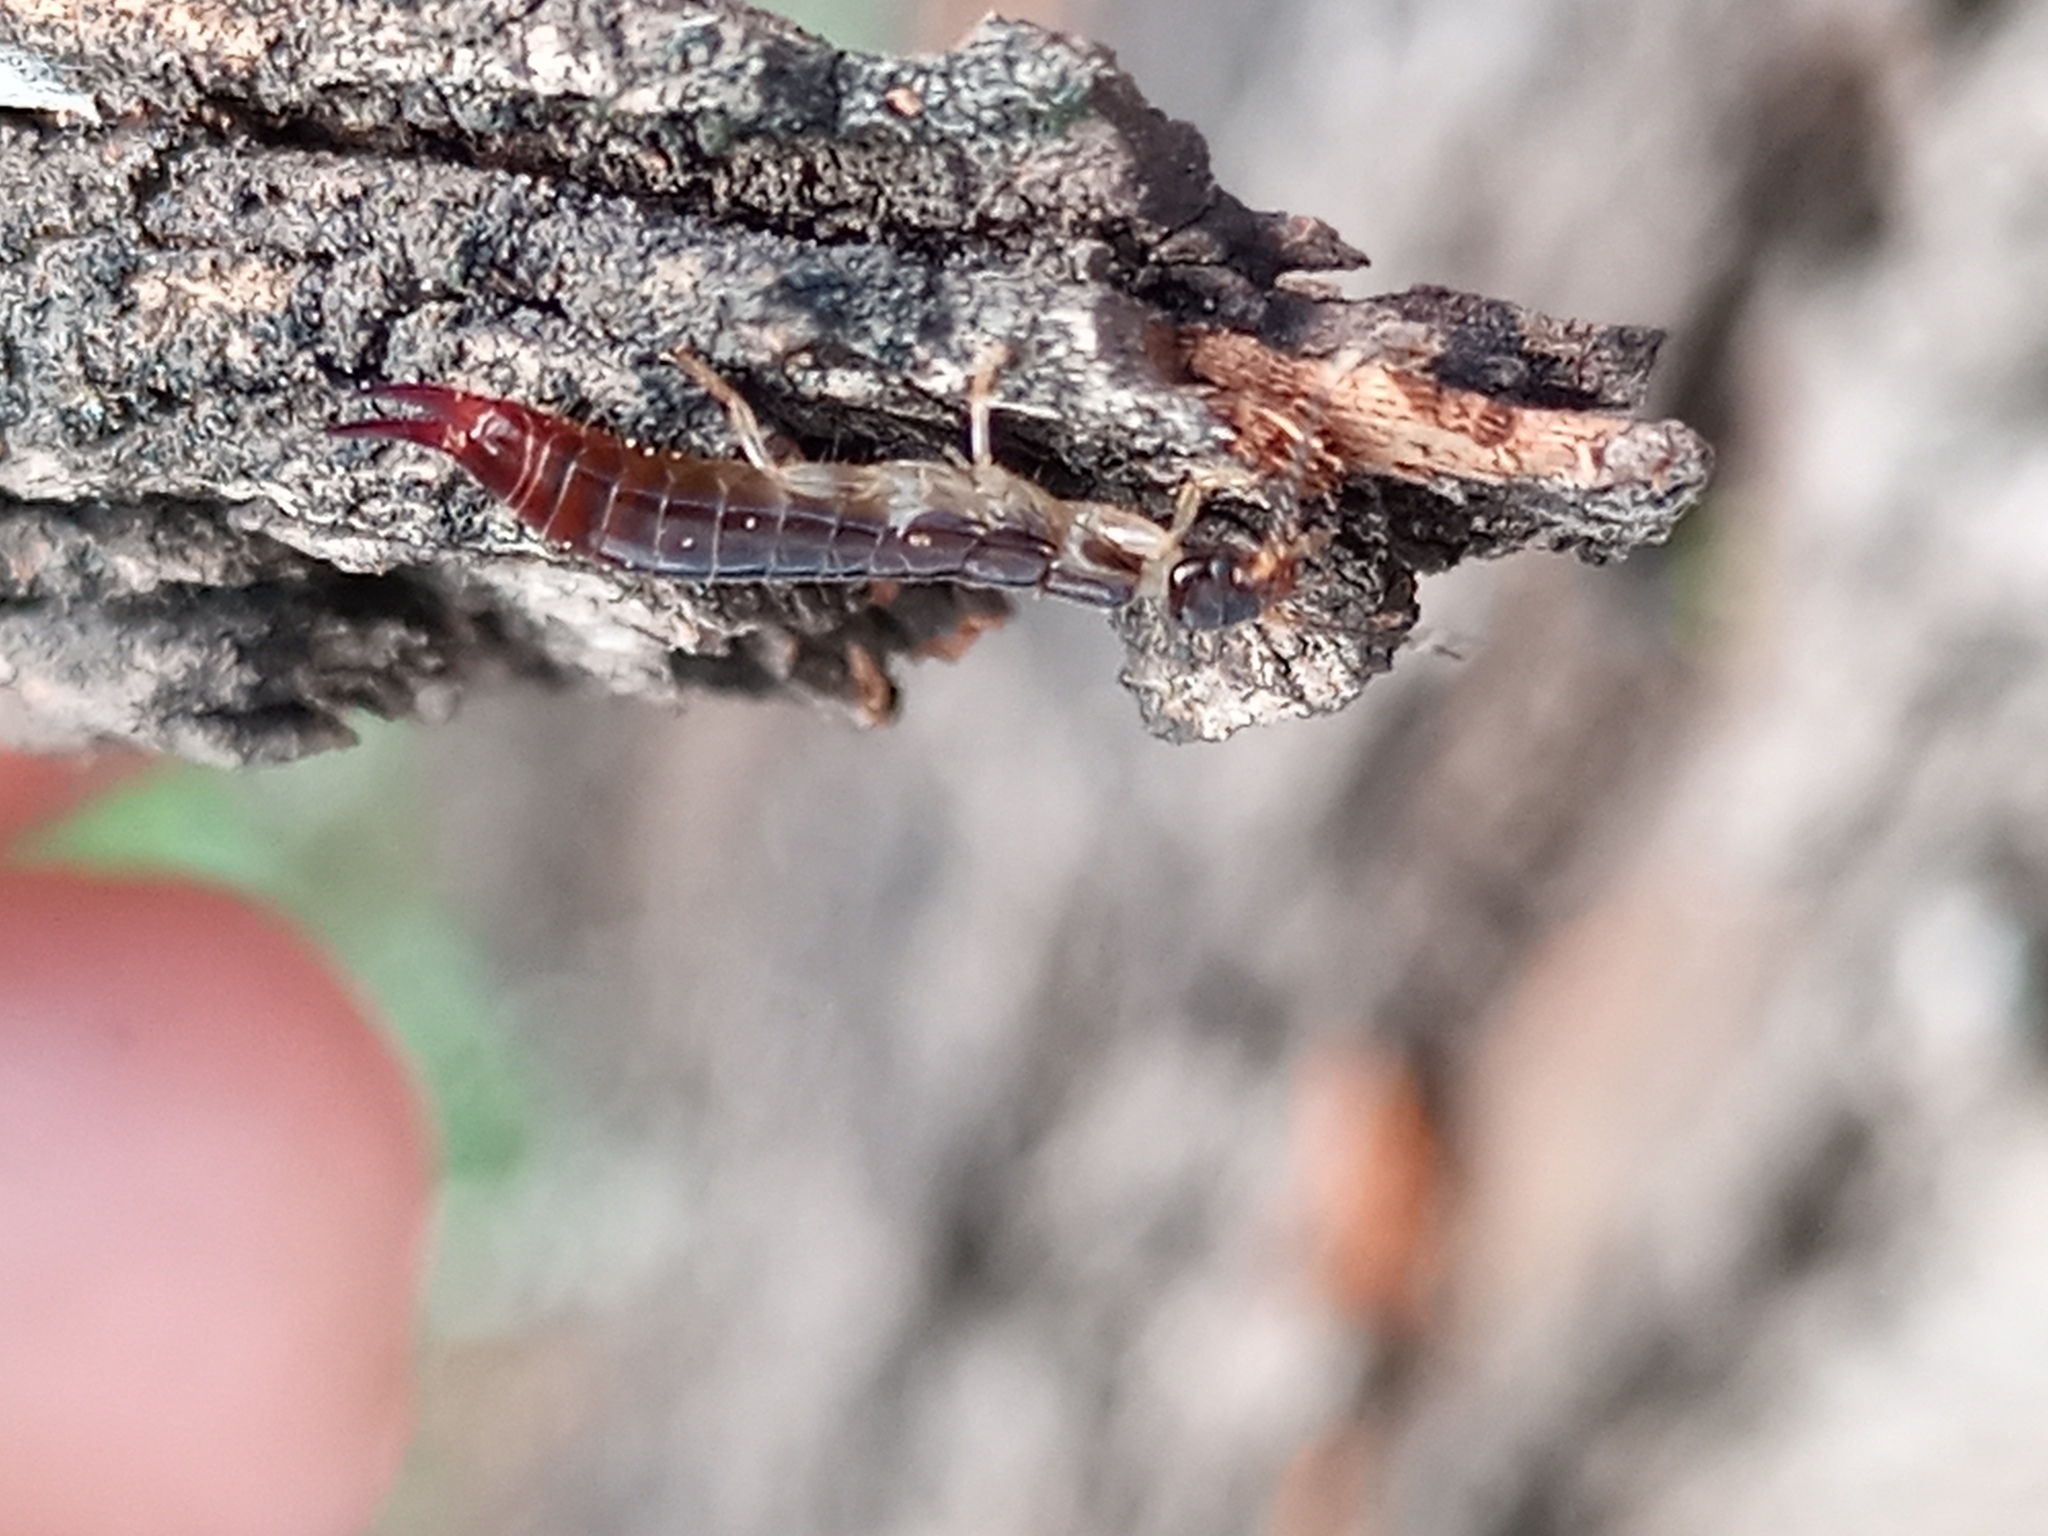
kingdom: Animalia
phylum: Arthropoda
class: Insecta
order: Dermaptera
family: Anisolabididae
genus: Euborellia
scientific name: Euborellia annulipes
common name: Ringlegged earwig
